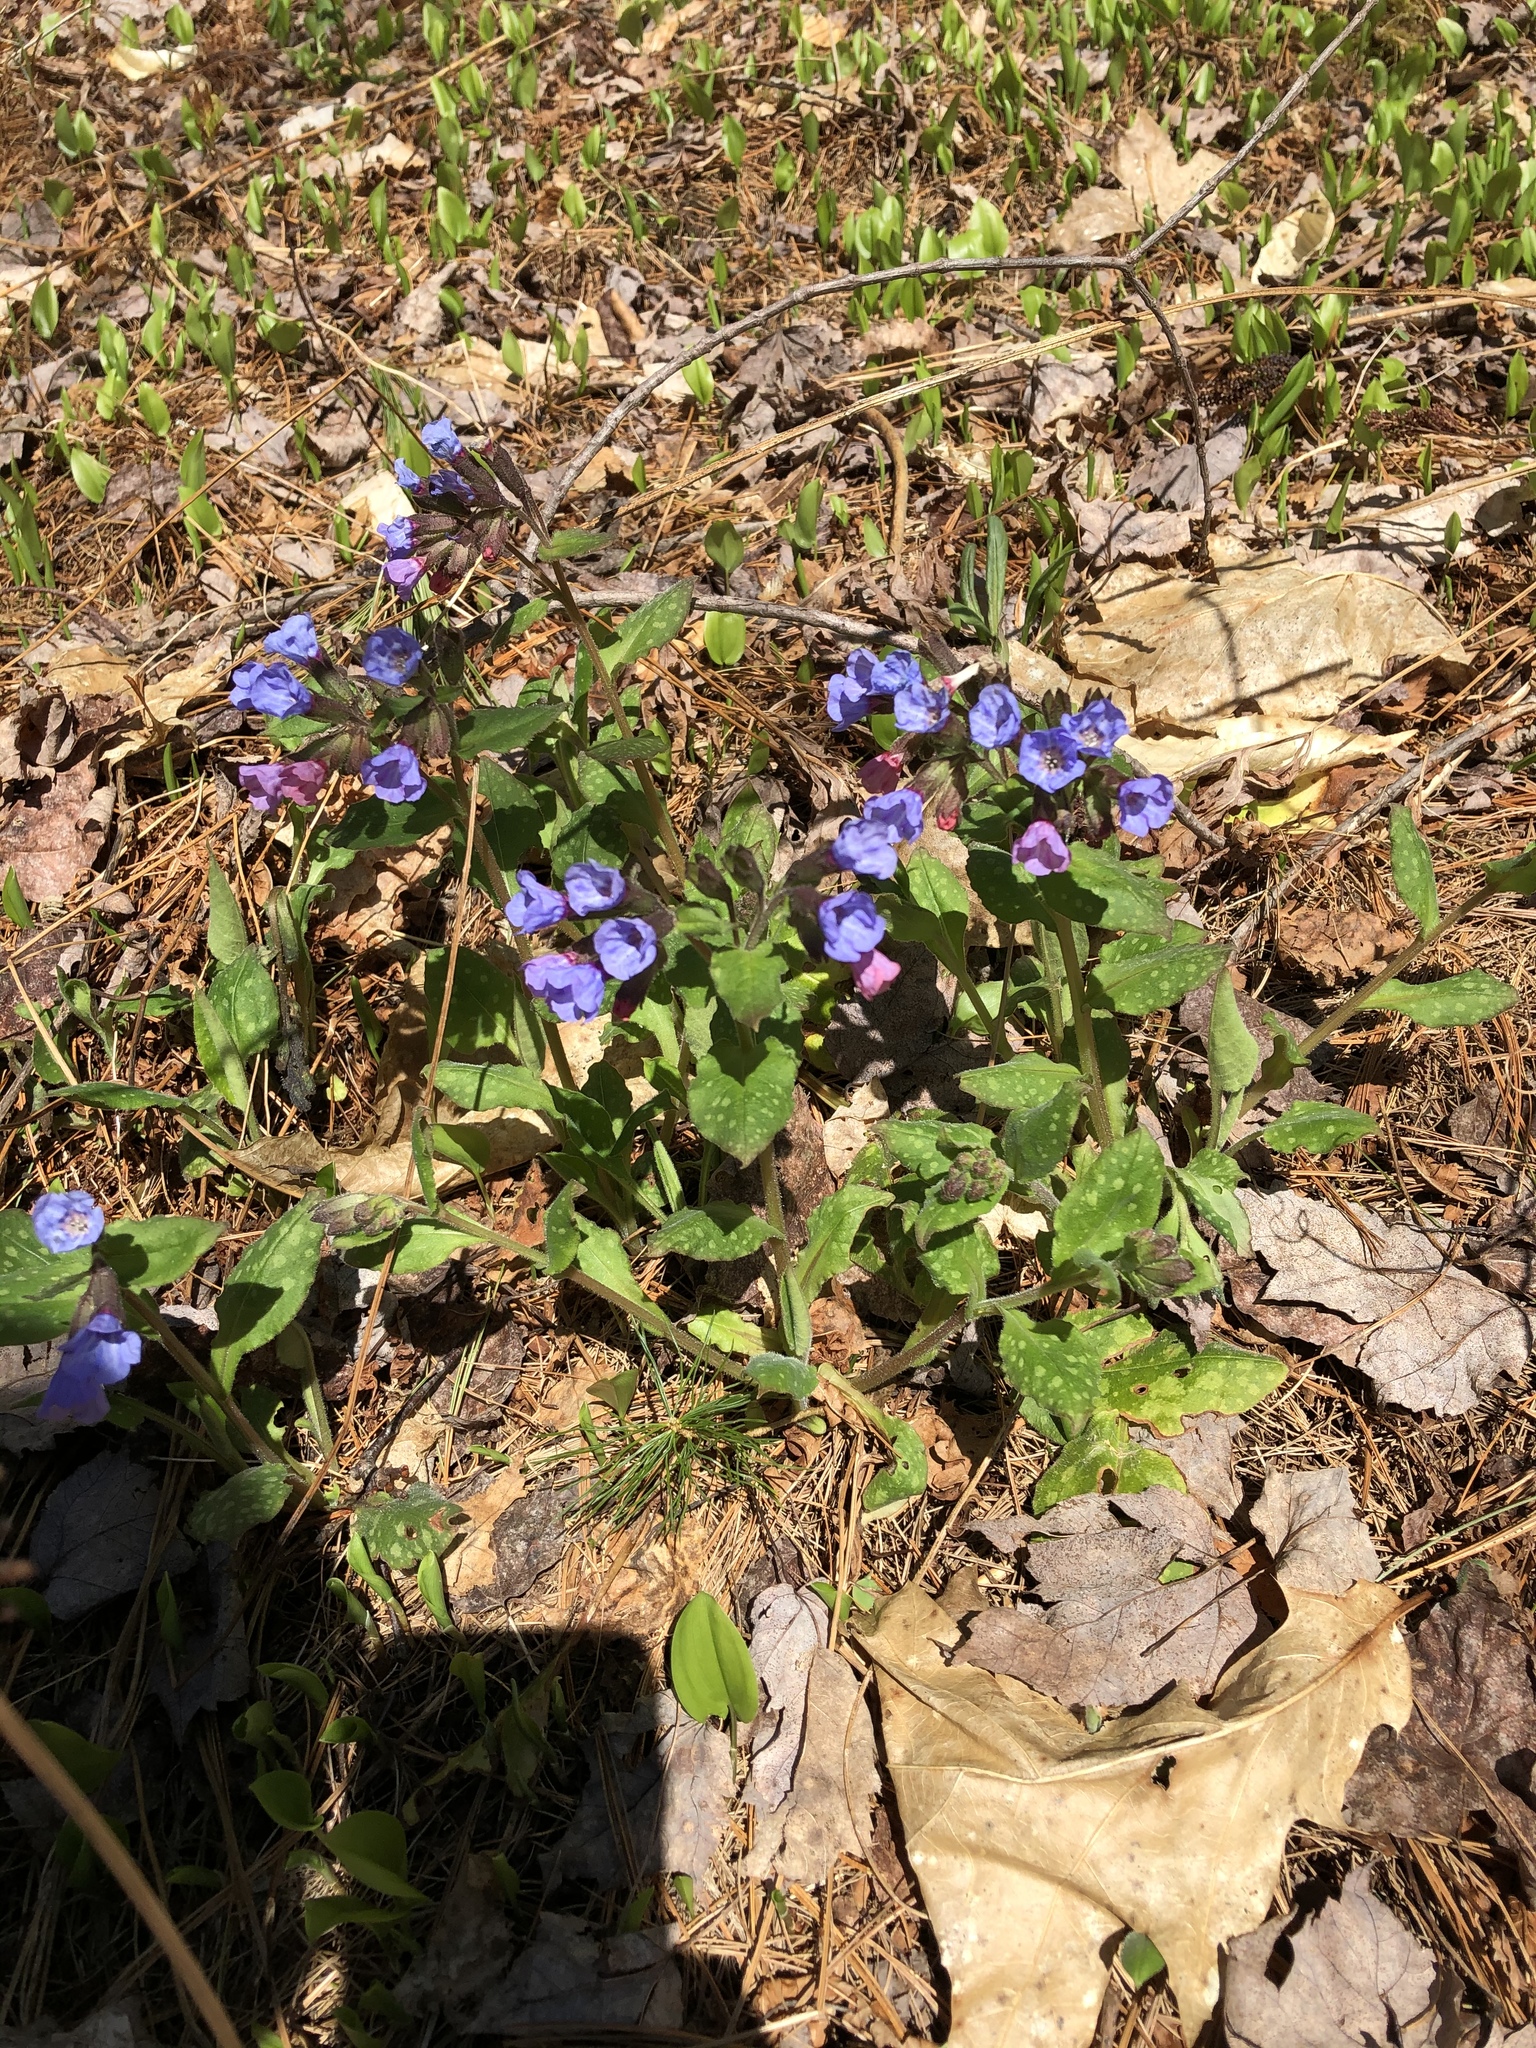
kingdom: Plantae
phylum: Tracheophyta
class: Magnoliopsida
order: Boraginales
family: Boraginaceae
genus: Pulmonaria
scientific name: Pulmonaria officinalis
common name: Lungwort
